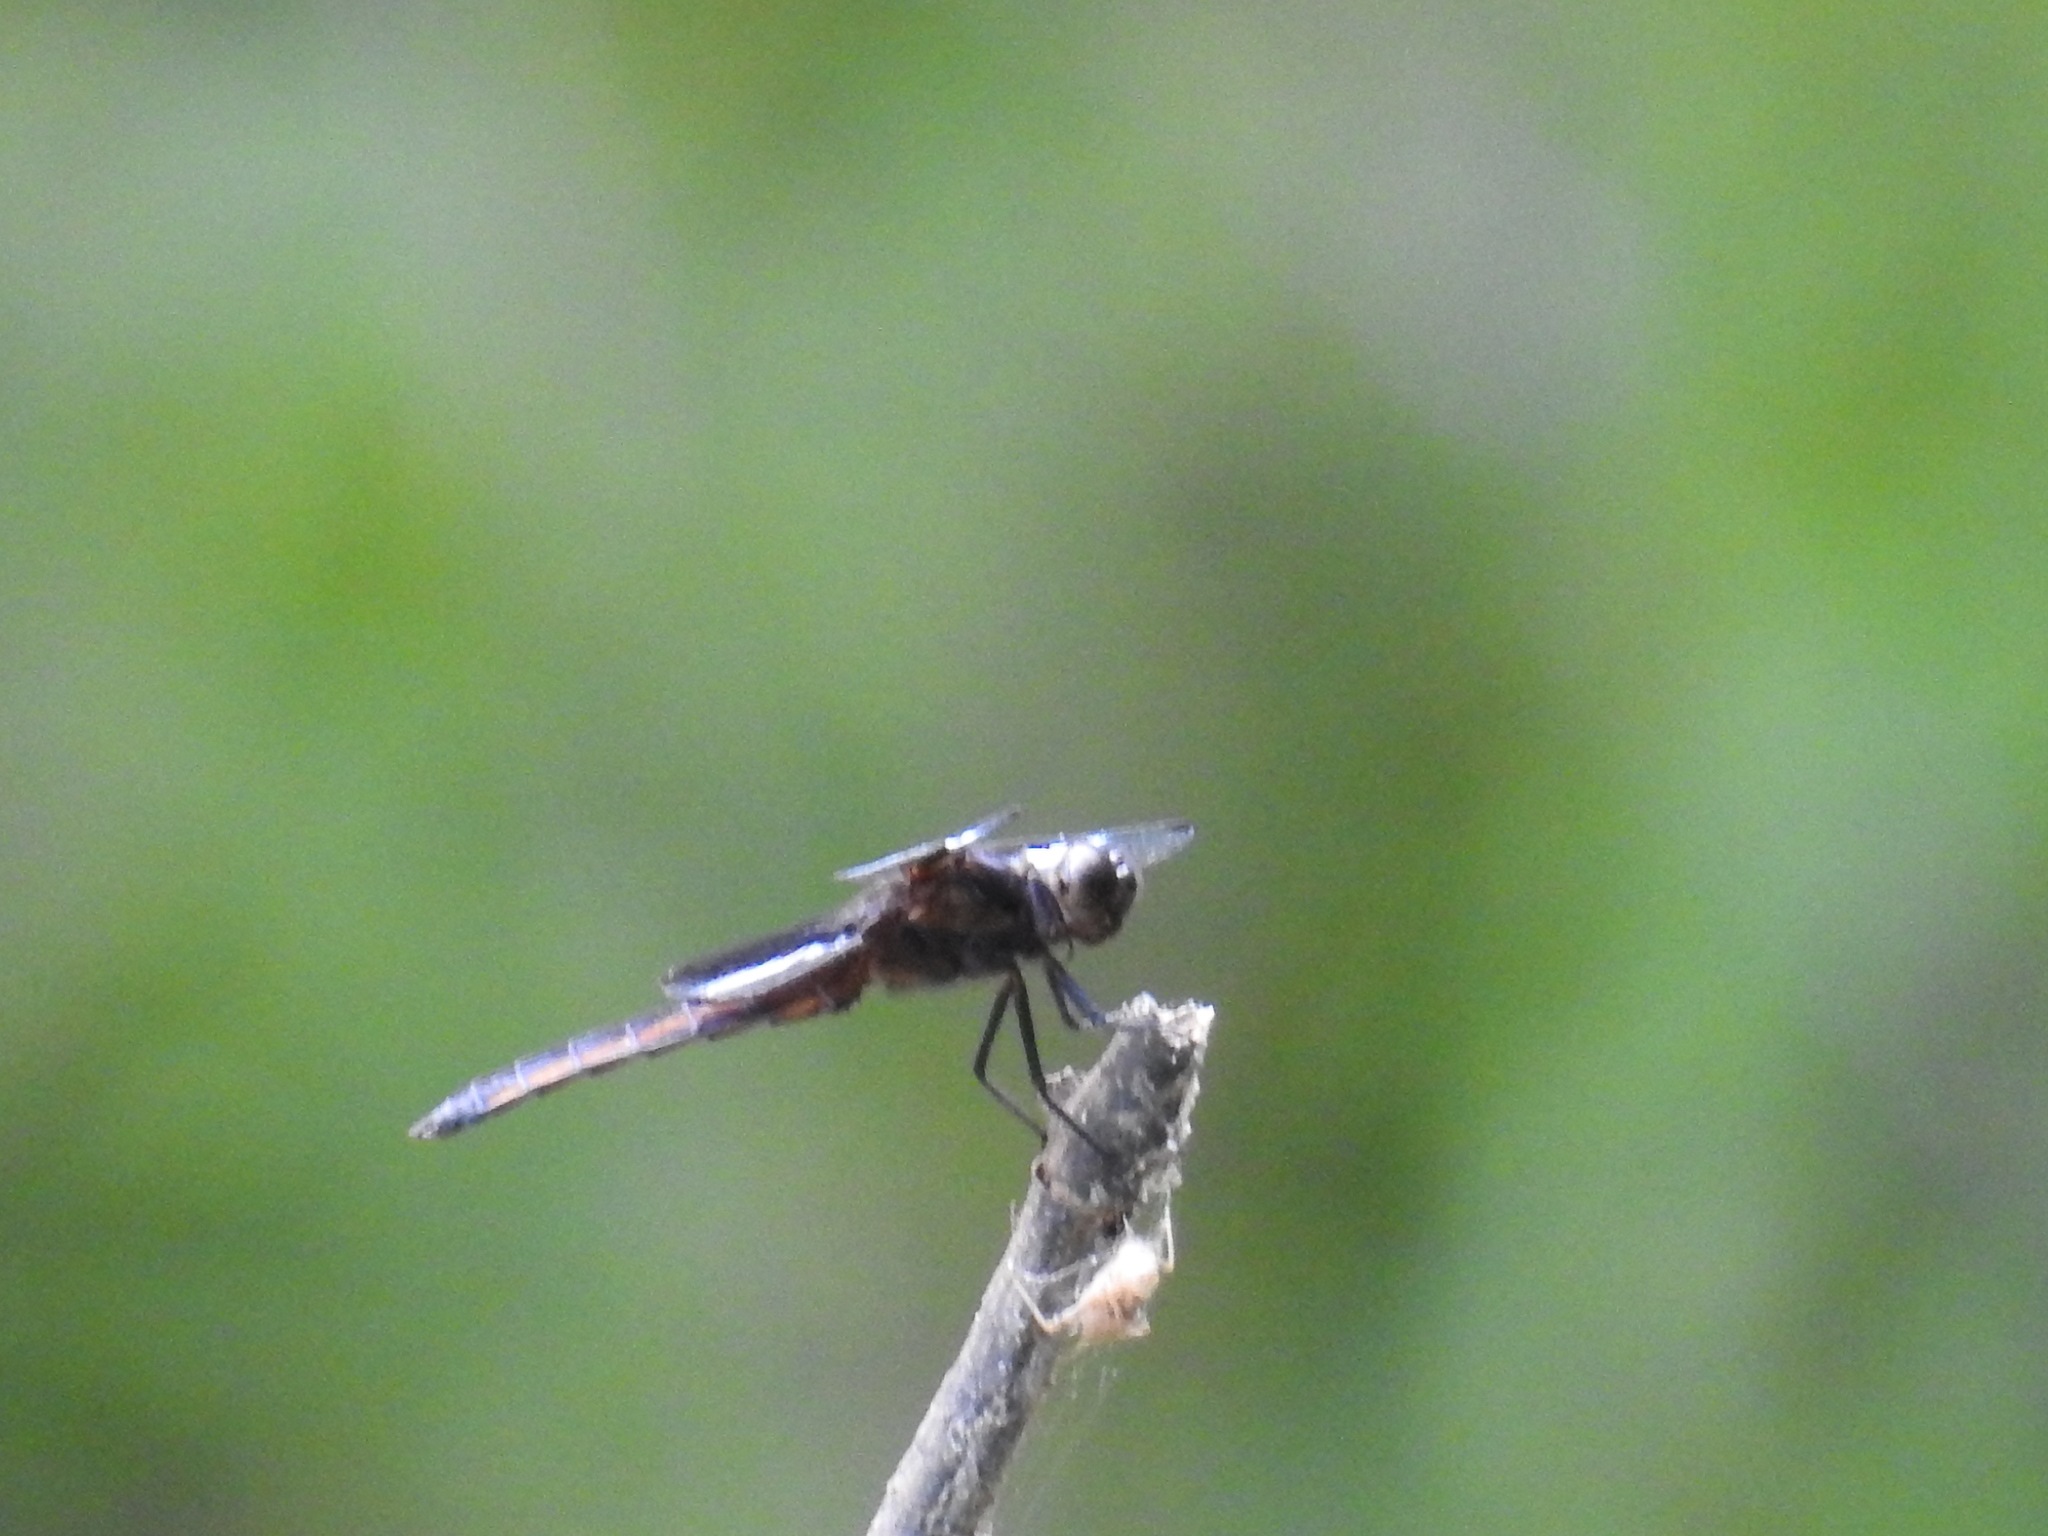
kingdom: Animalia
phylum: Arthropoda
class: Insecta
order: Odonata
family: Libellulidae
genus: Libellula
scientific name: Libellula luctuosa
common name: Widow skimmer
